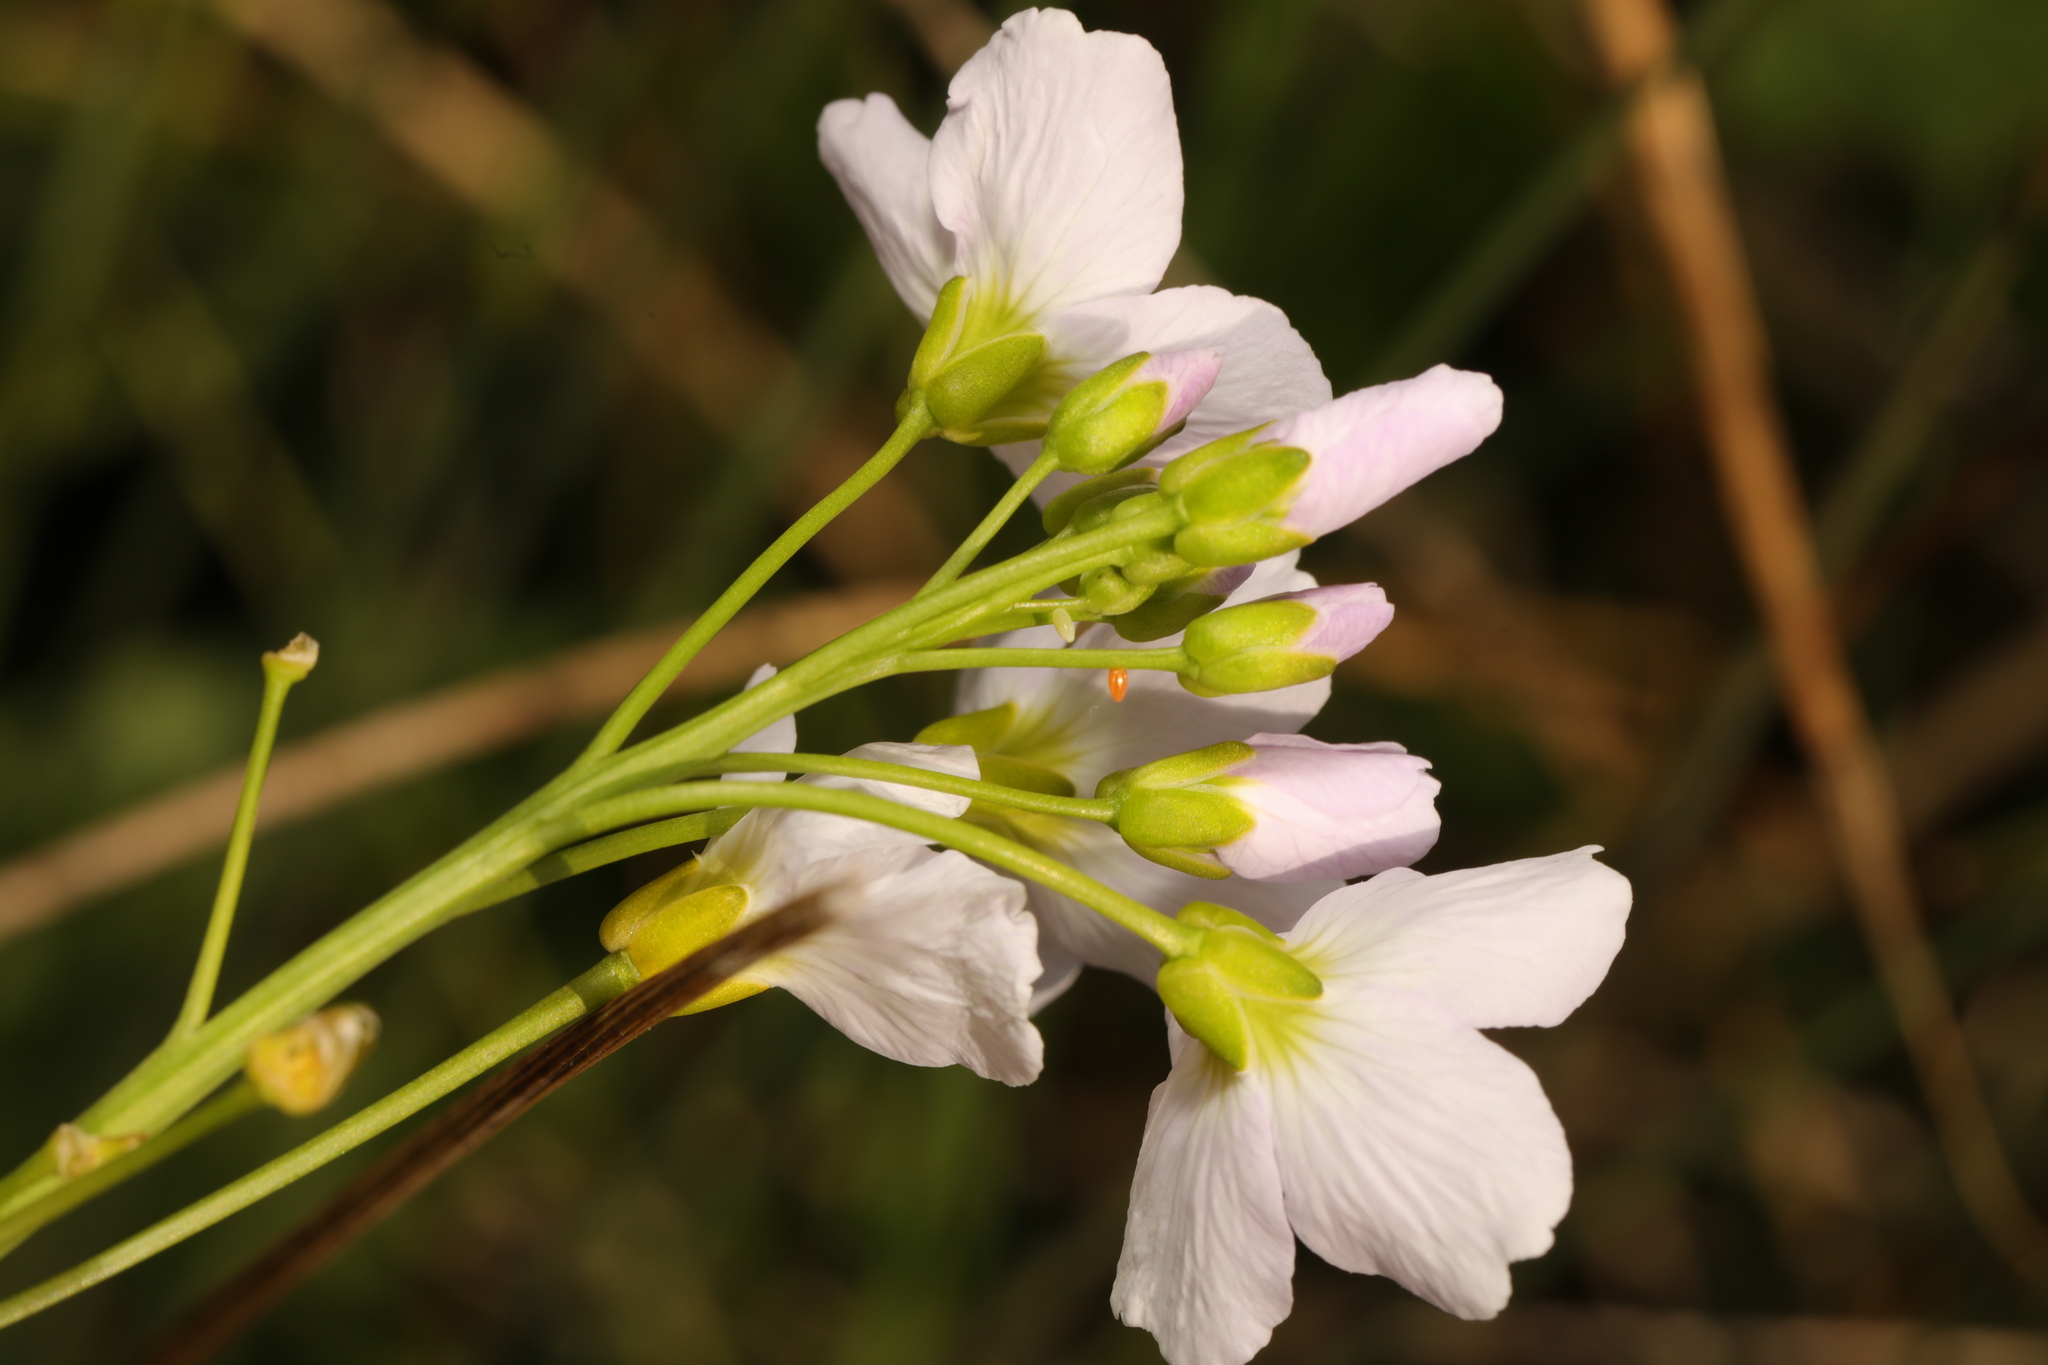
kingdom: Animalia
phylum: Arthropoda
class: Insecta
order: Lepidoptera
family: Pieridae
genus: Anthocharis
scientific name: Anthocharis cardamines
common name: Orange-tip
